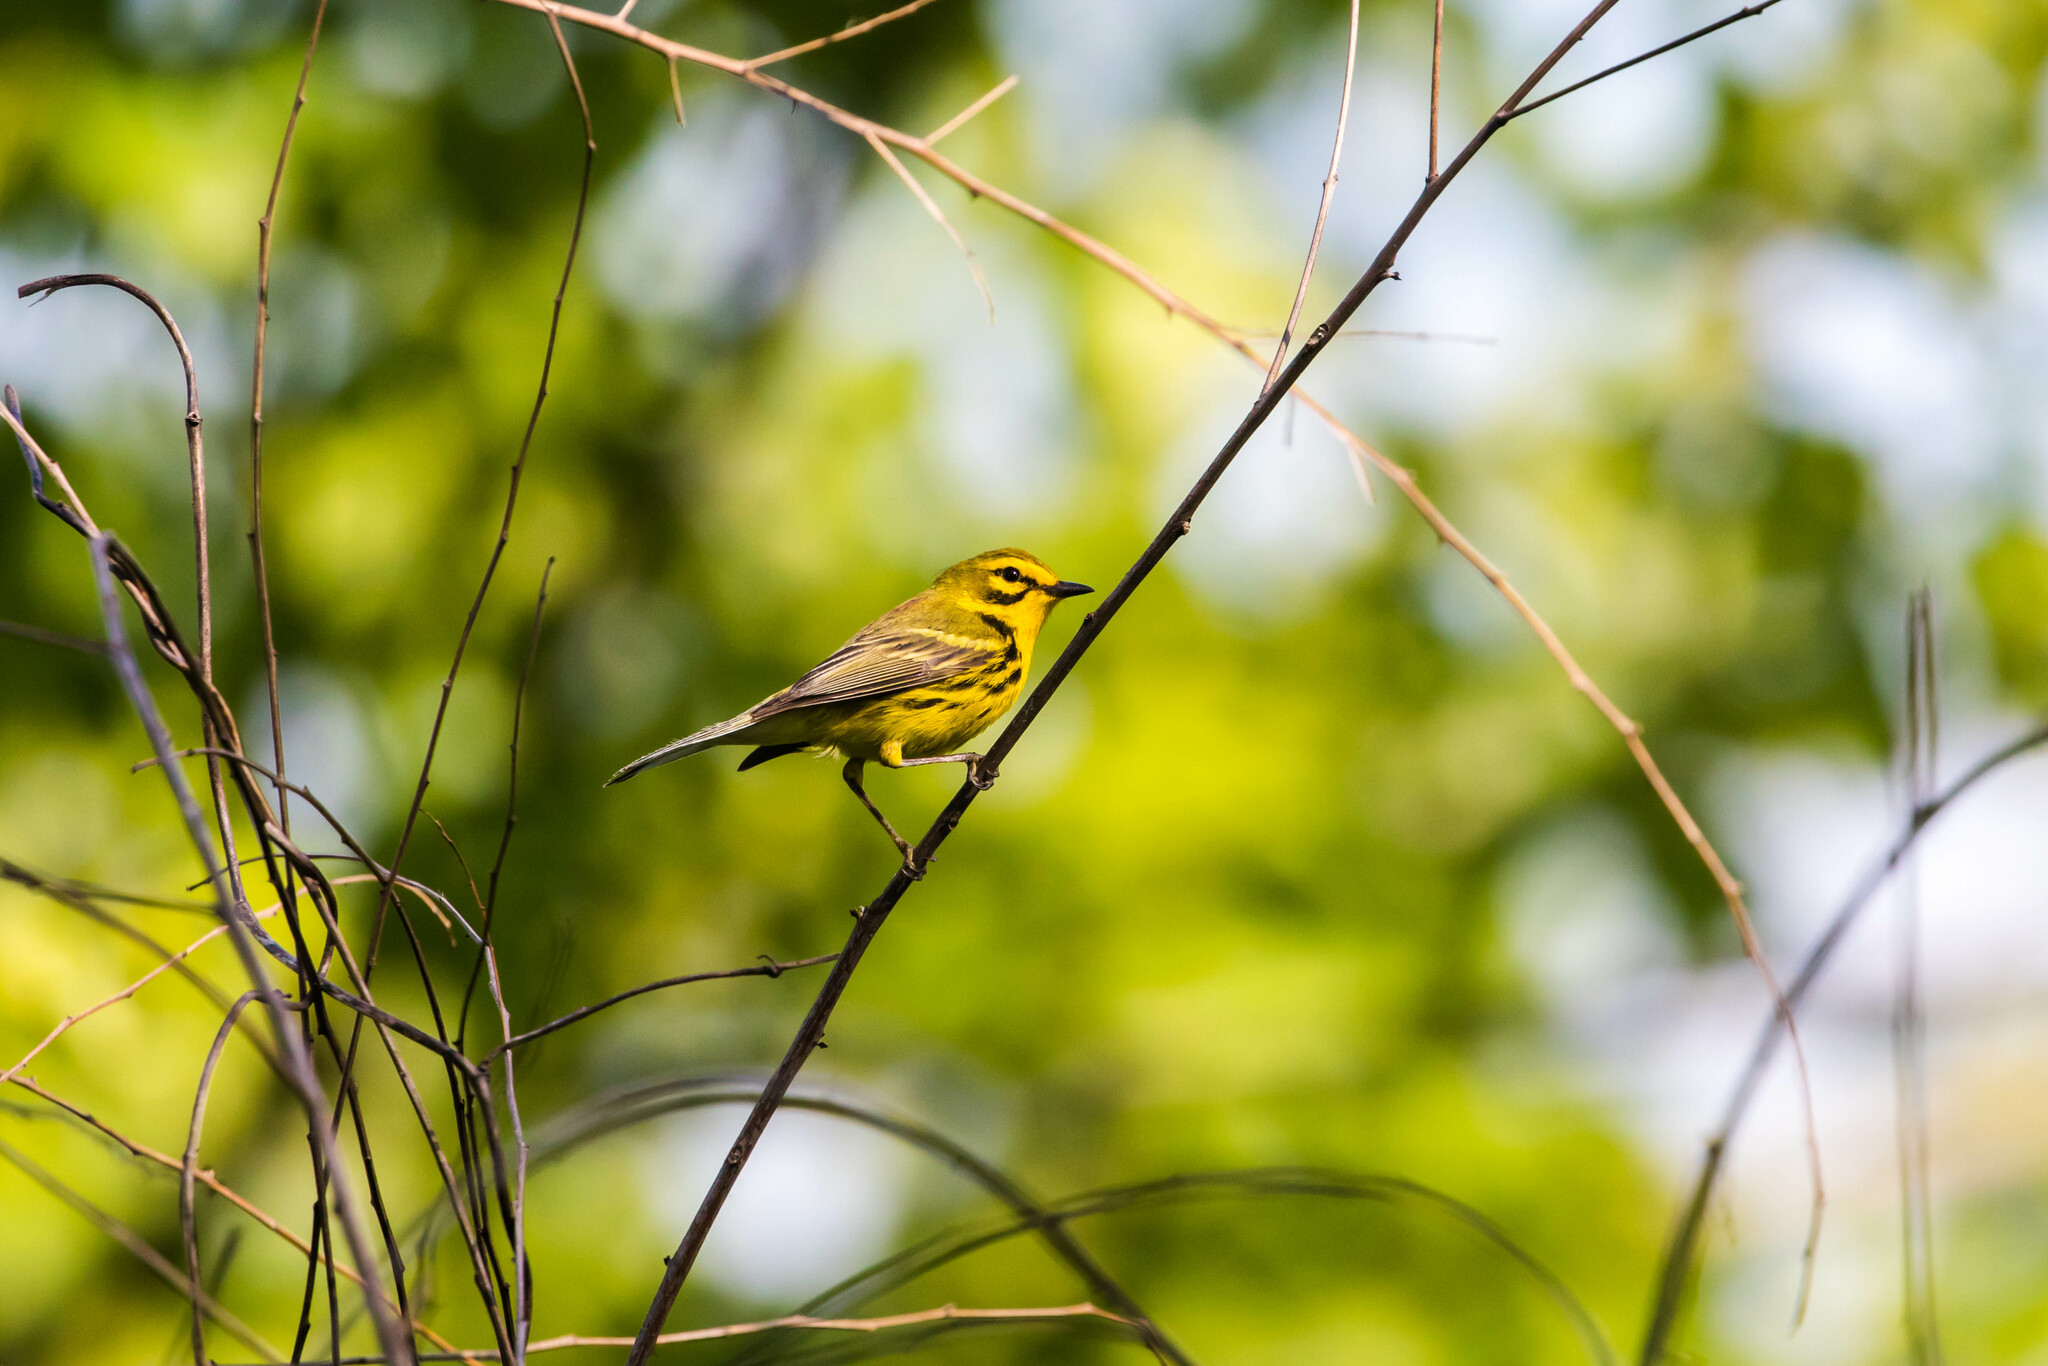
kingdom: Animalia
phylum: Chordata
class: Aves
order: Passeriformes
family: Parulidae
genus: Setophaga
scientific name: Setophaga discolor
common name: Prairie warbler
